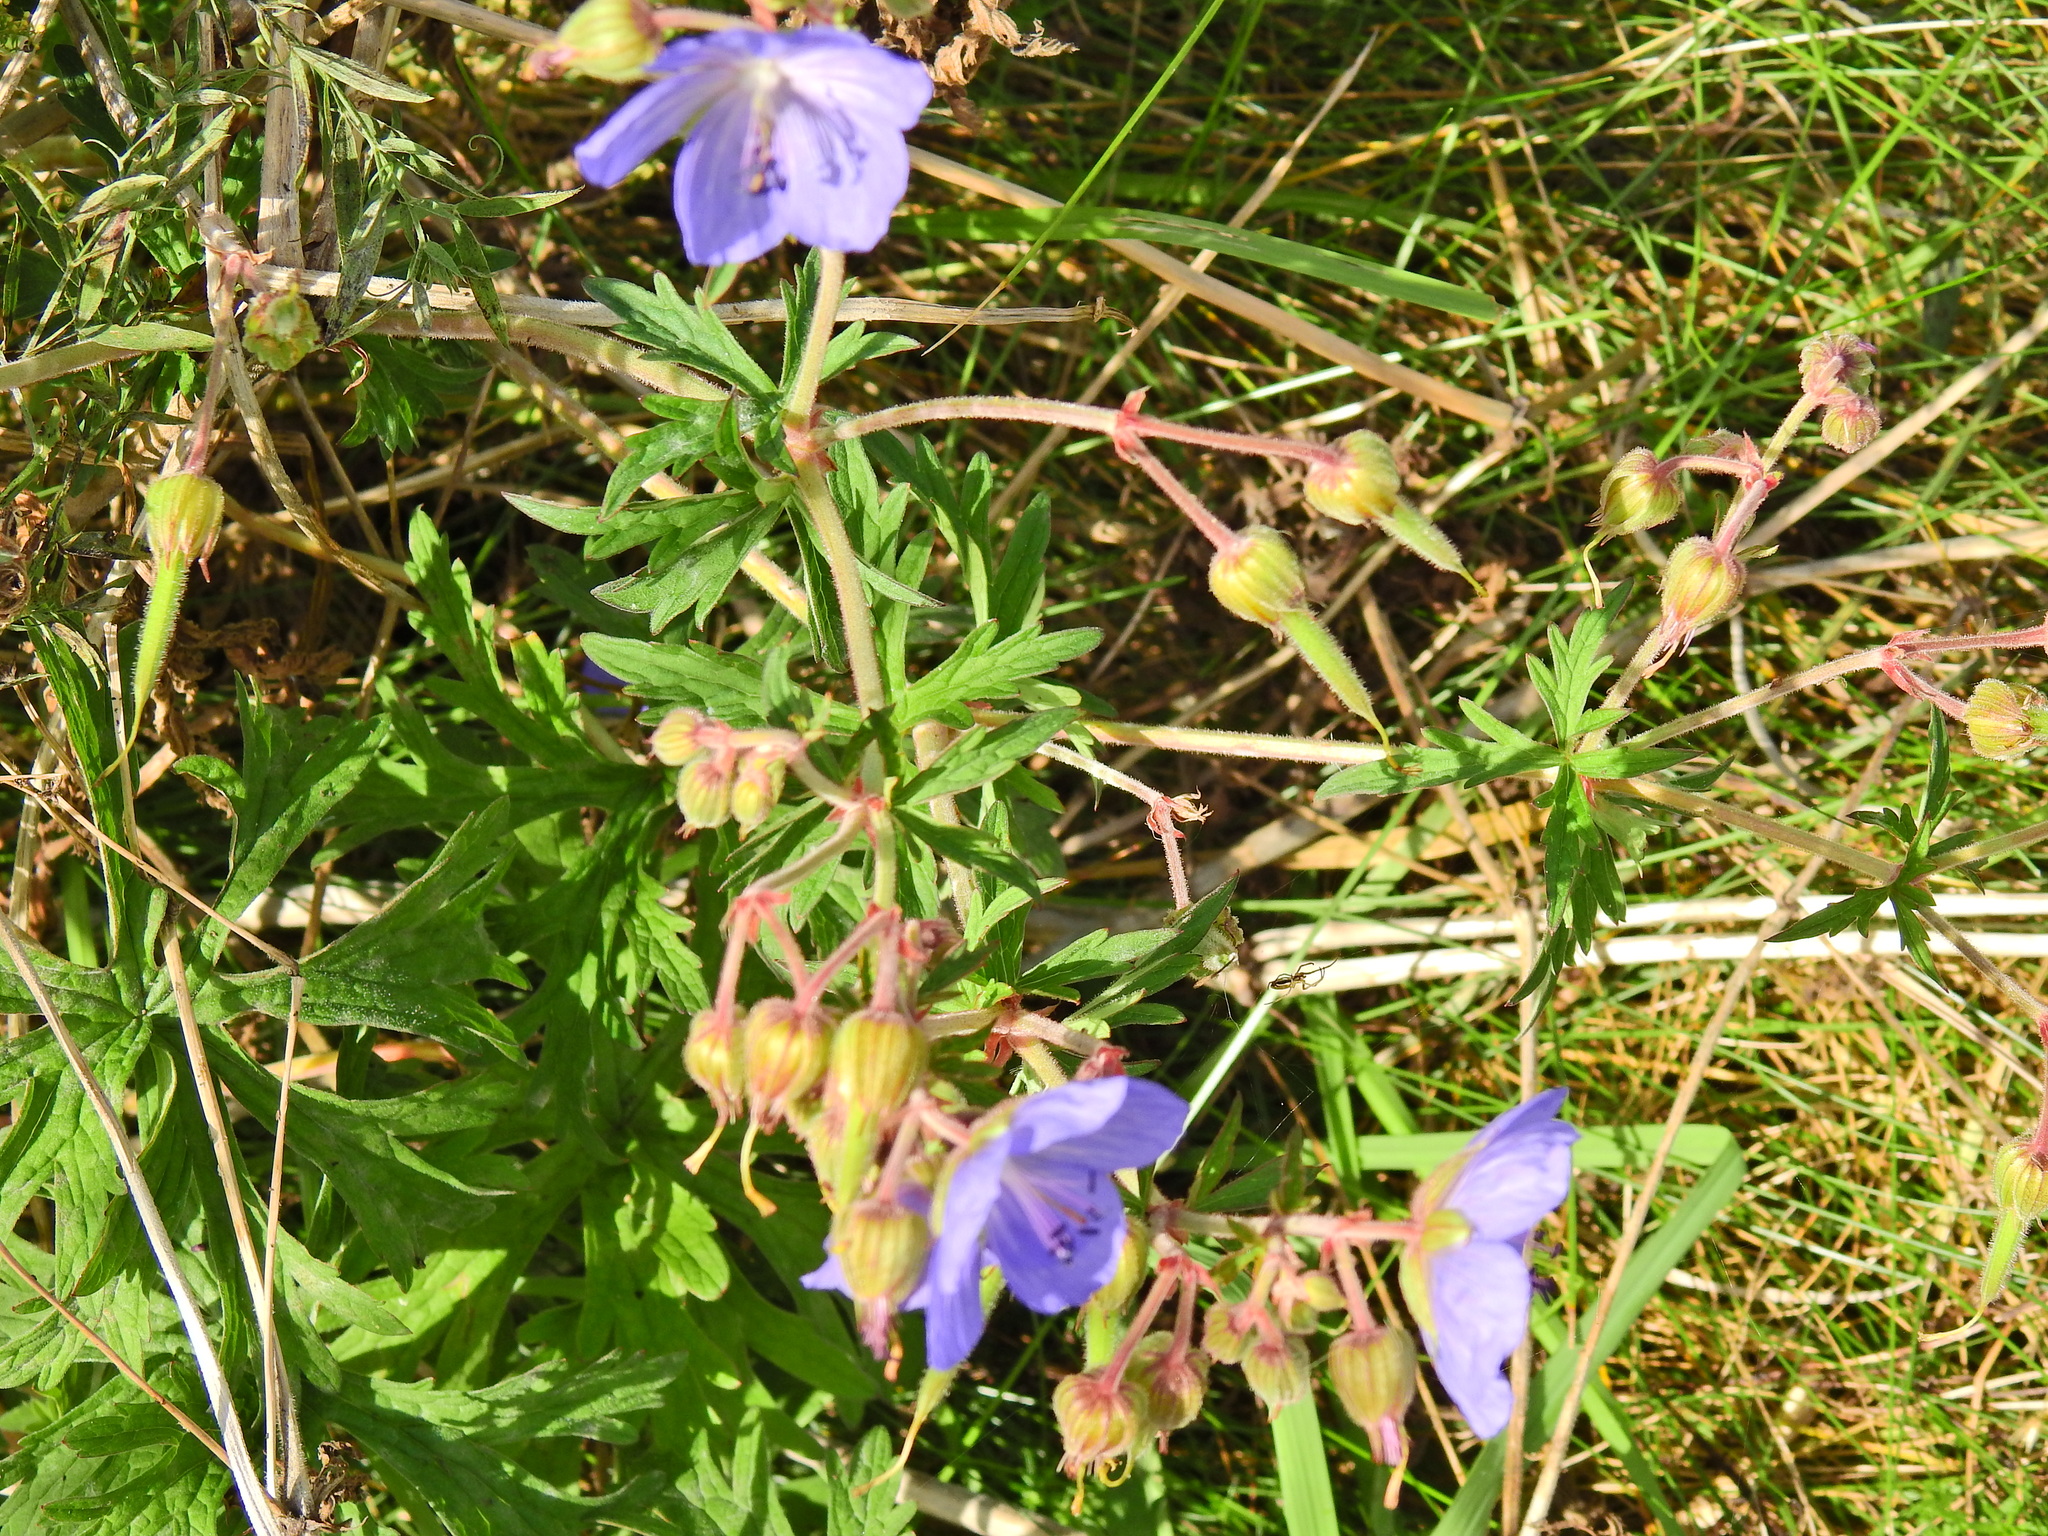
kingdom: Plantae
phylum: Tracheophyta
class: Magnoliopsida
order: Geraniales
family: Geraniaceae
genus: Geranium
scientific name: Geranium pratense
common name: Meadow crane's-bill
